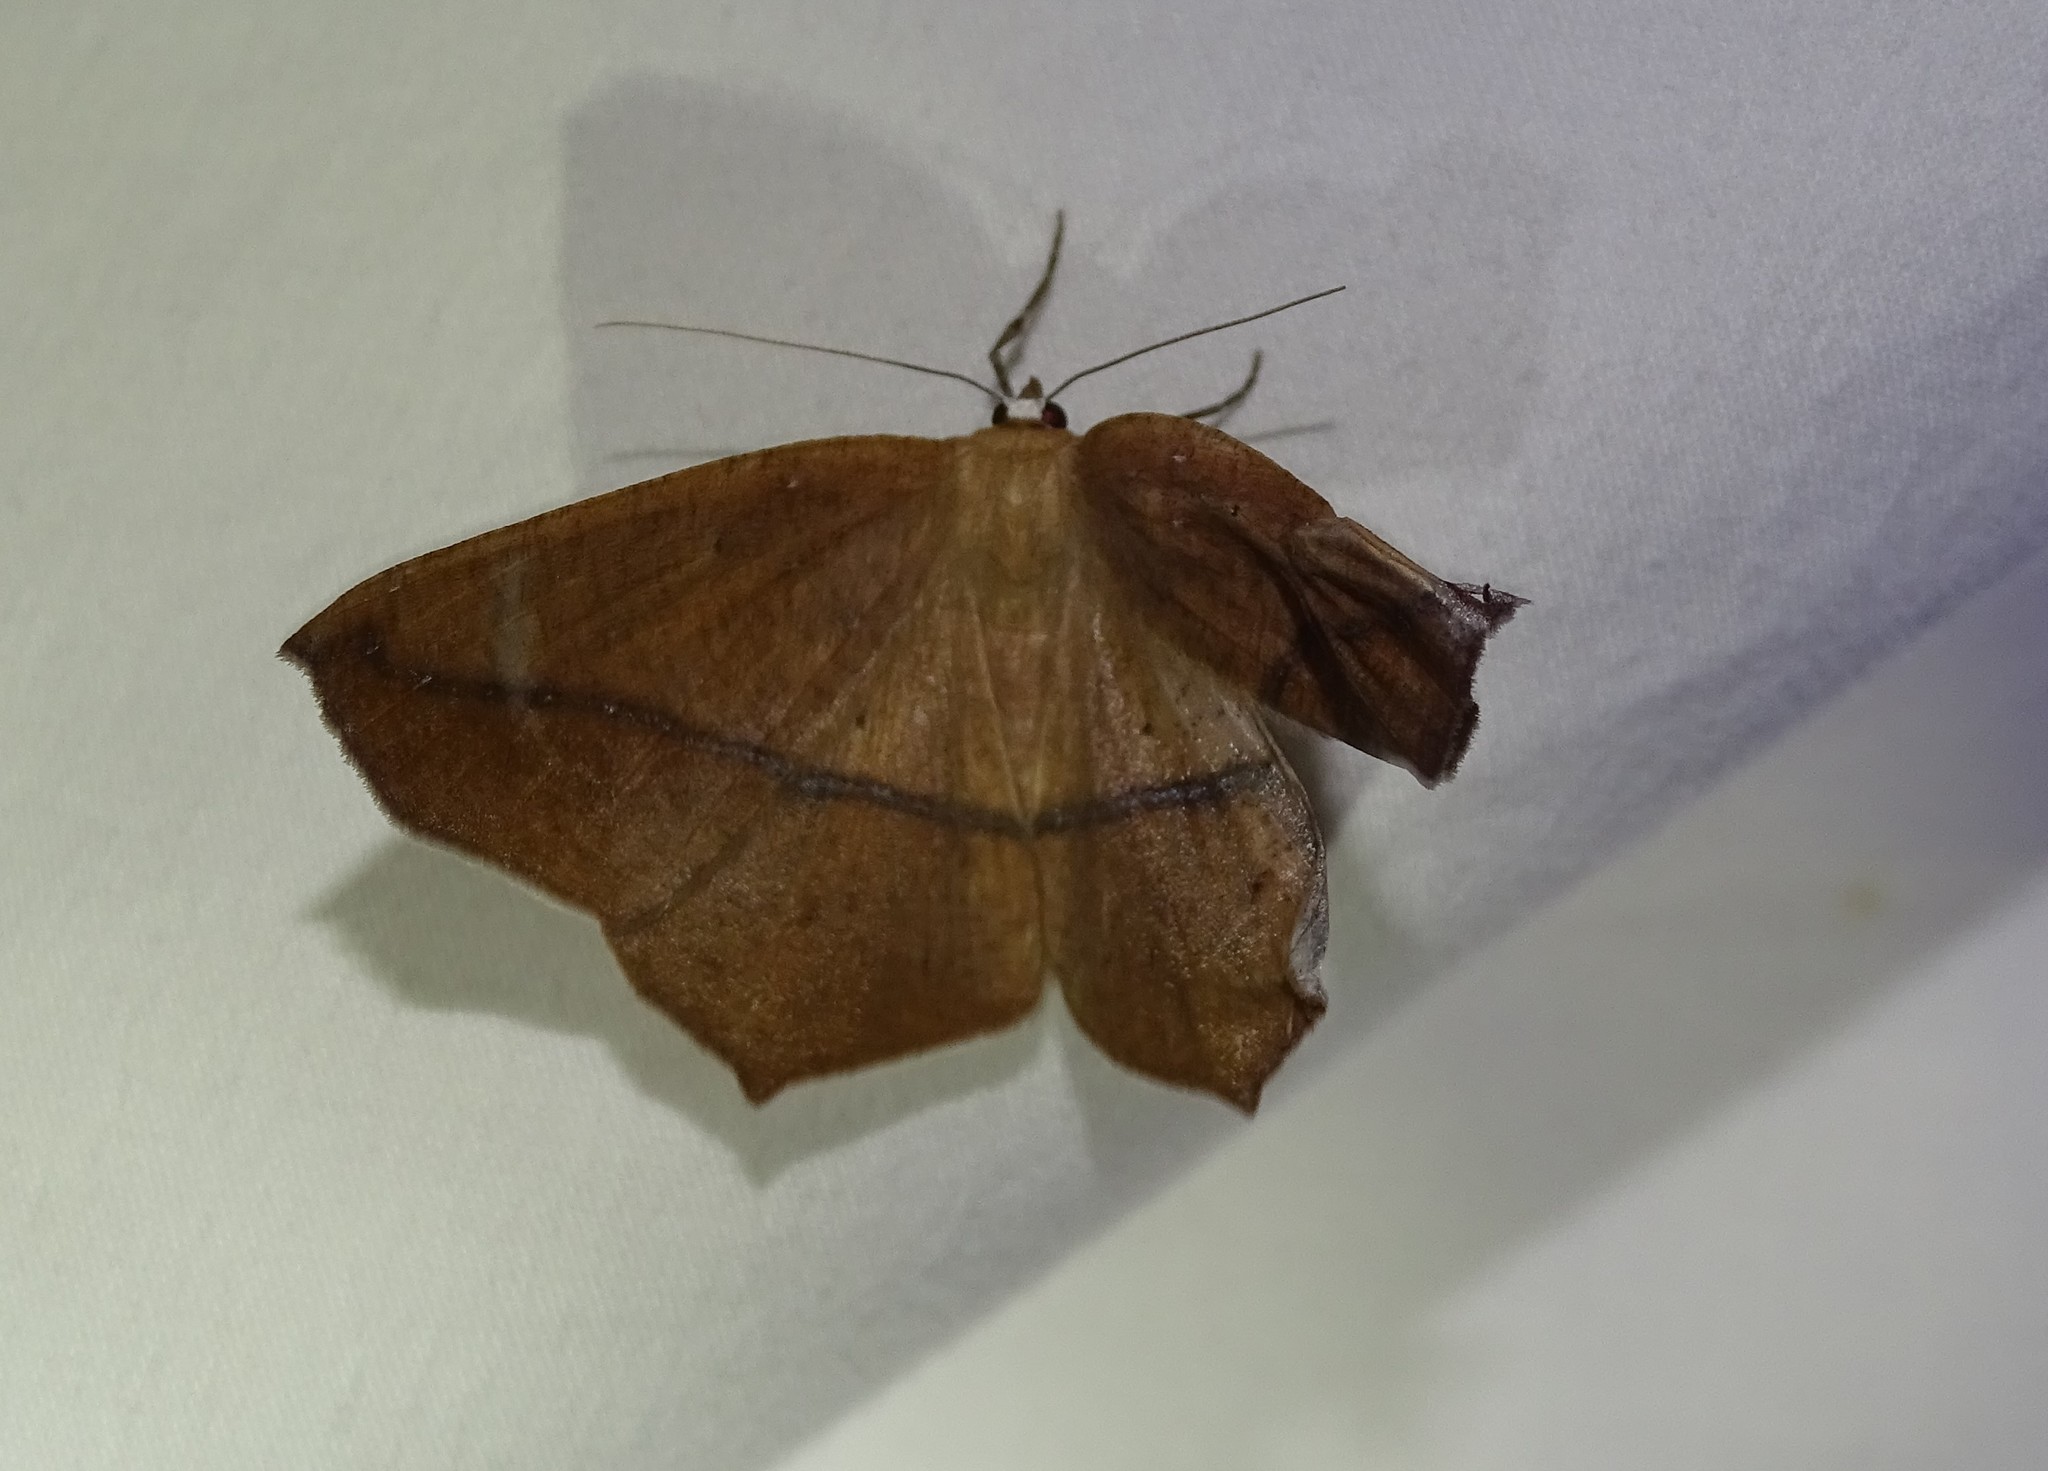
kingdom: Animalia
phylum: Arthropoda
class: Insecta
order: Lepidoptera
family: Geometridae
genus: Prochoerodes
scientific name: Prochoerodes lineola
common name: Large maple spanworm
